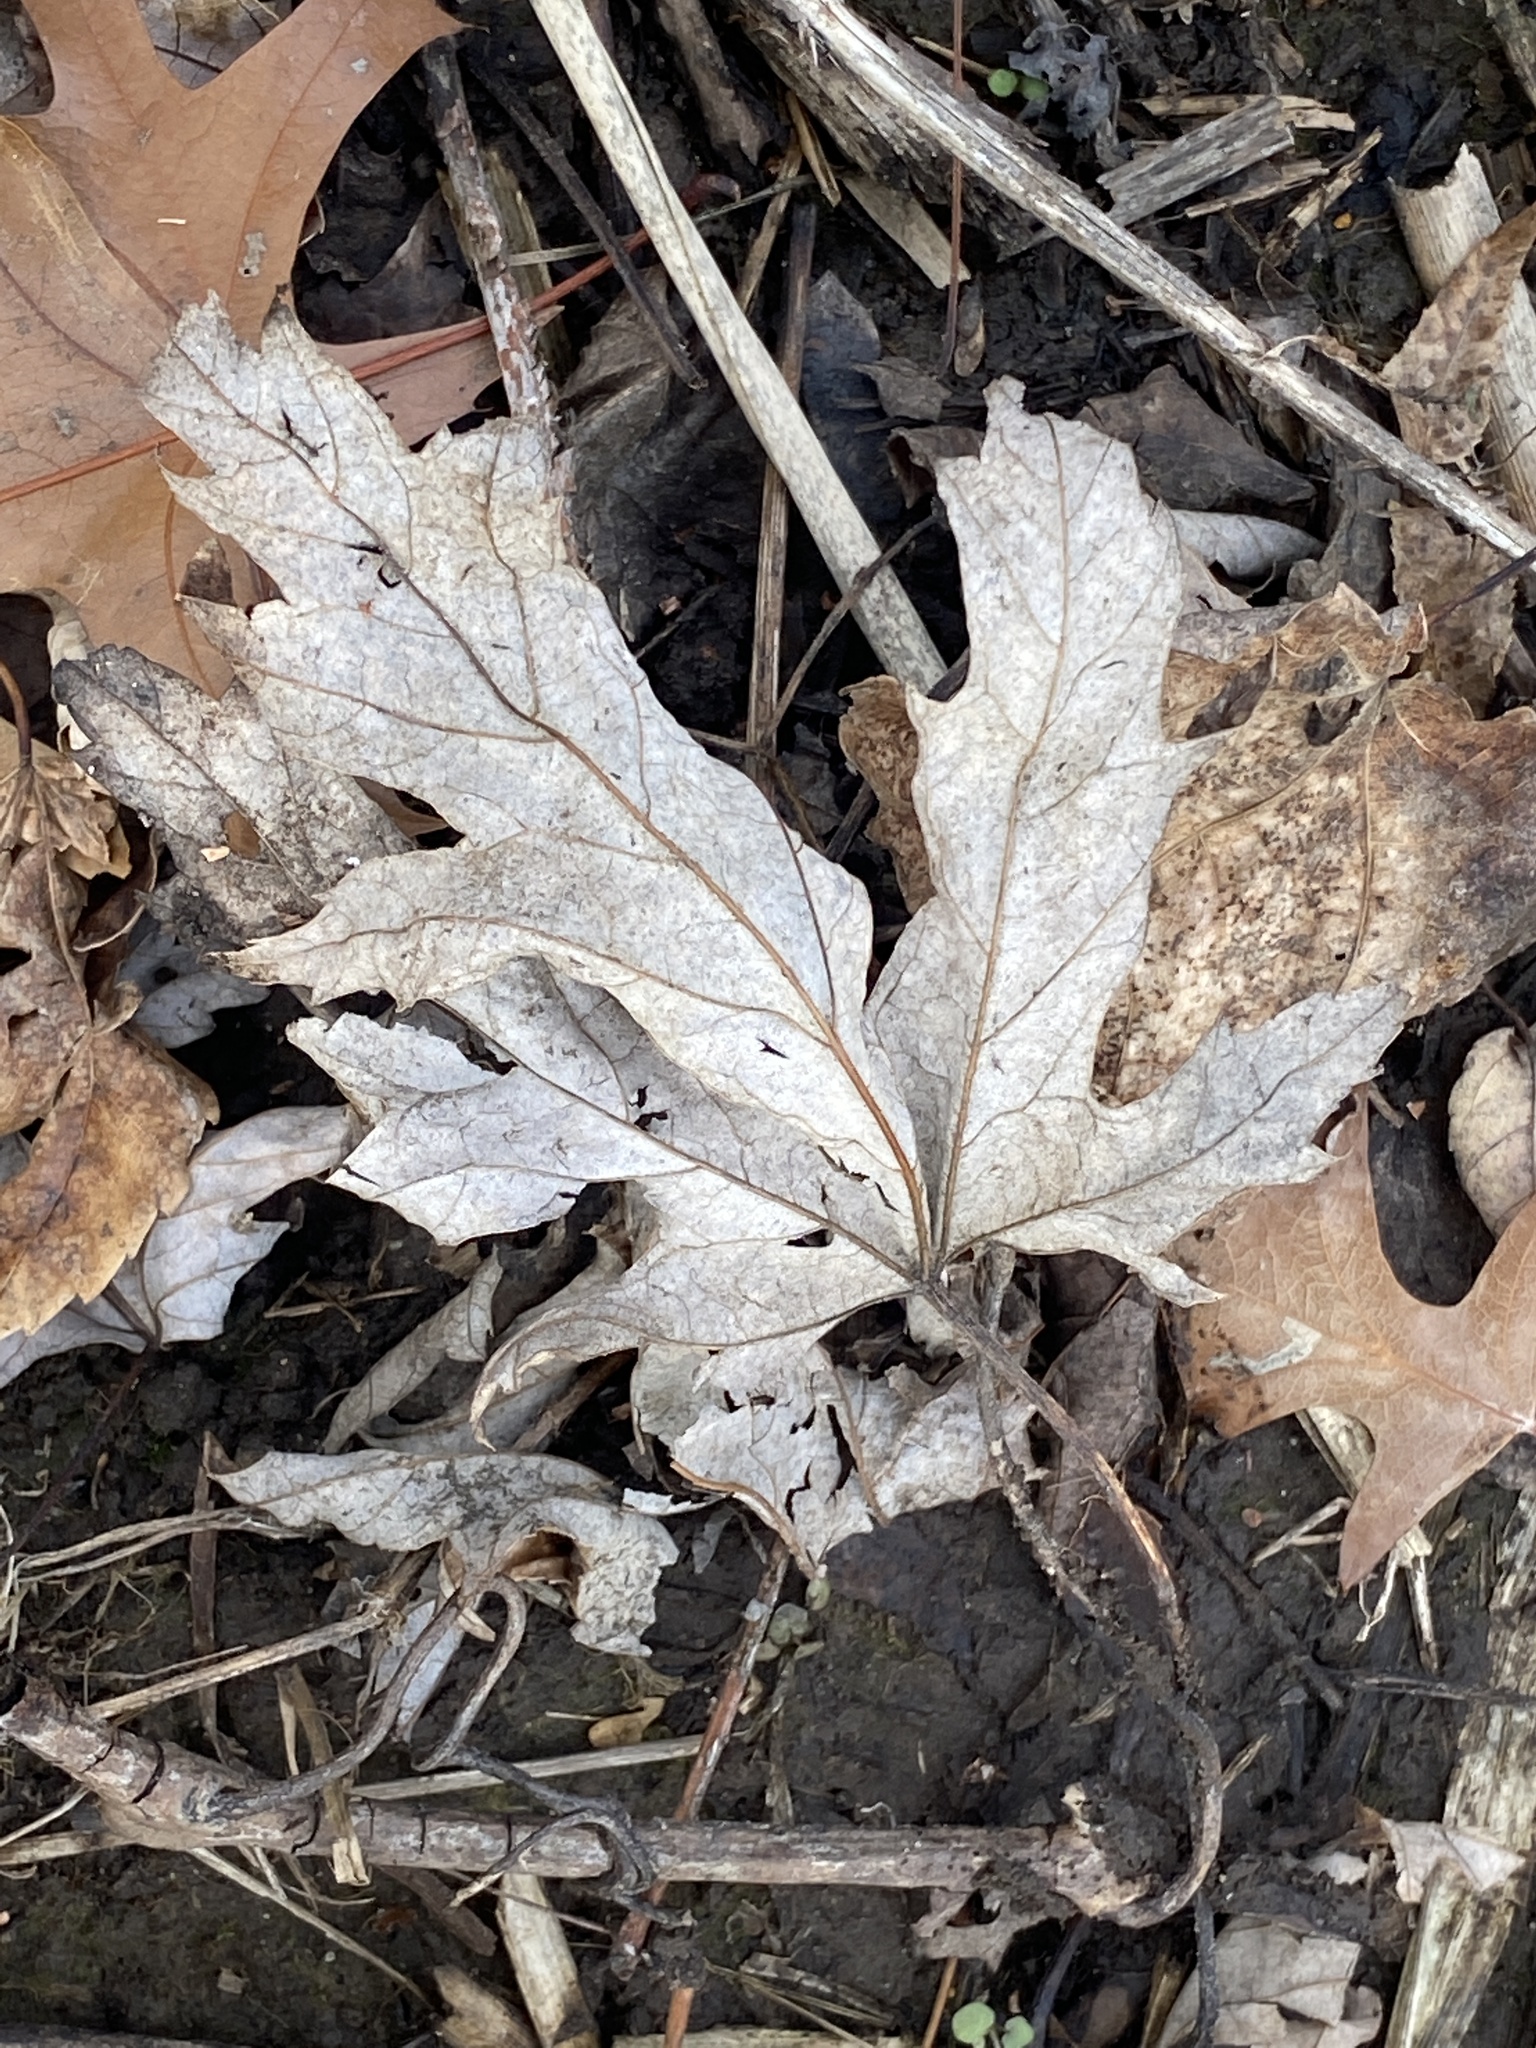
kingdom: Plantae
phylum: Tracheophyta
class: Magnoliopsida
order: Sapindales
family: Sapindaceae
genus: Acer
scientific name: Acer saccharinum
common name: Silver maple
